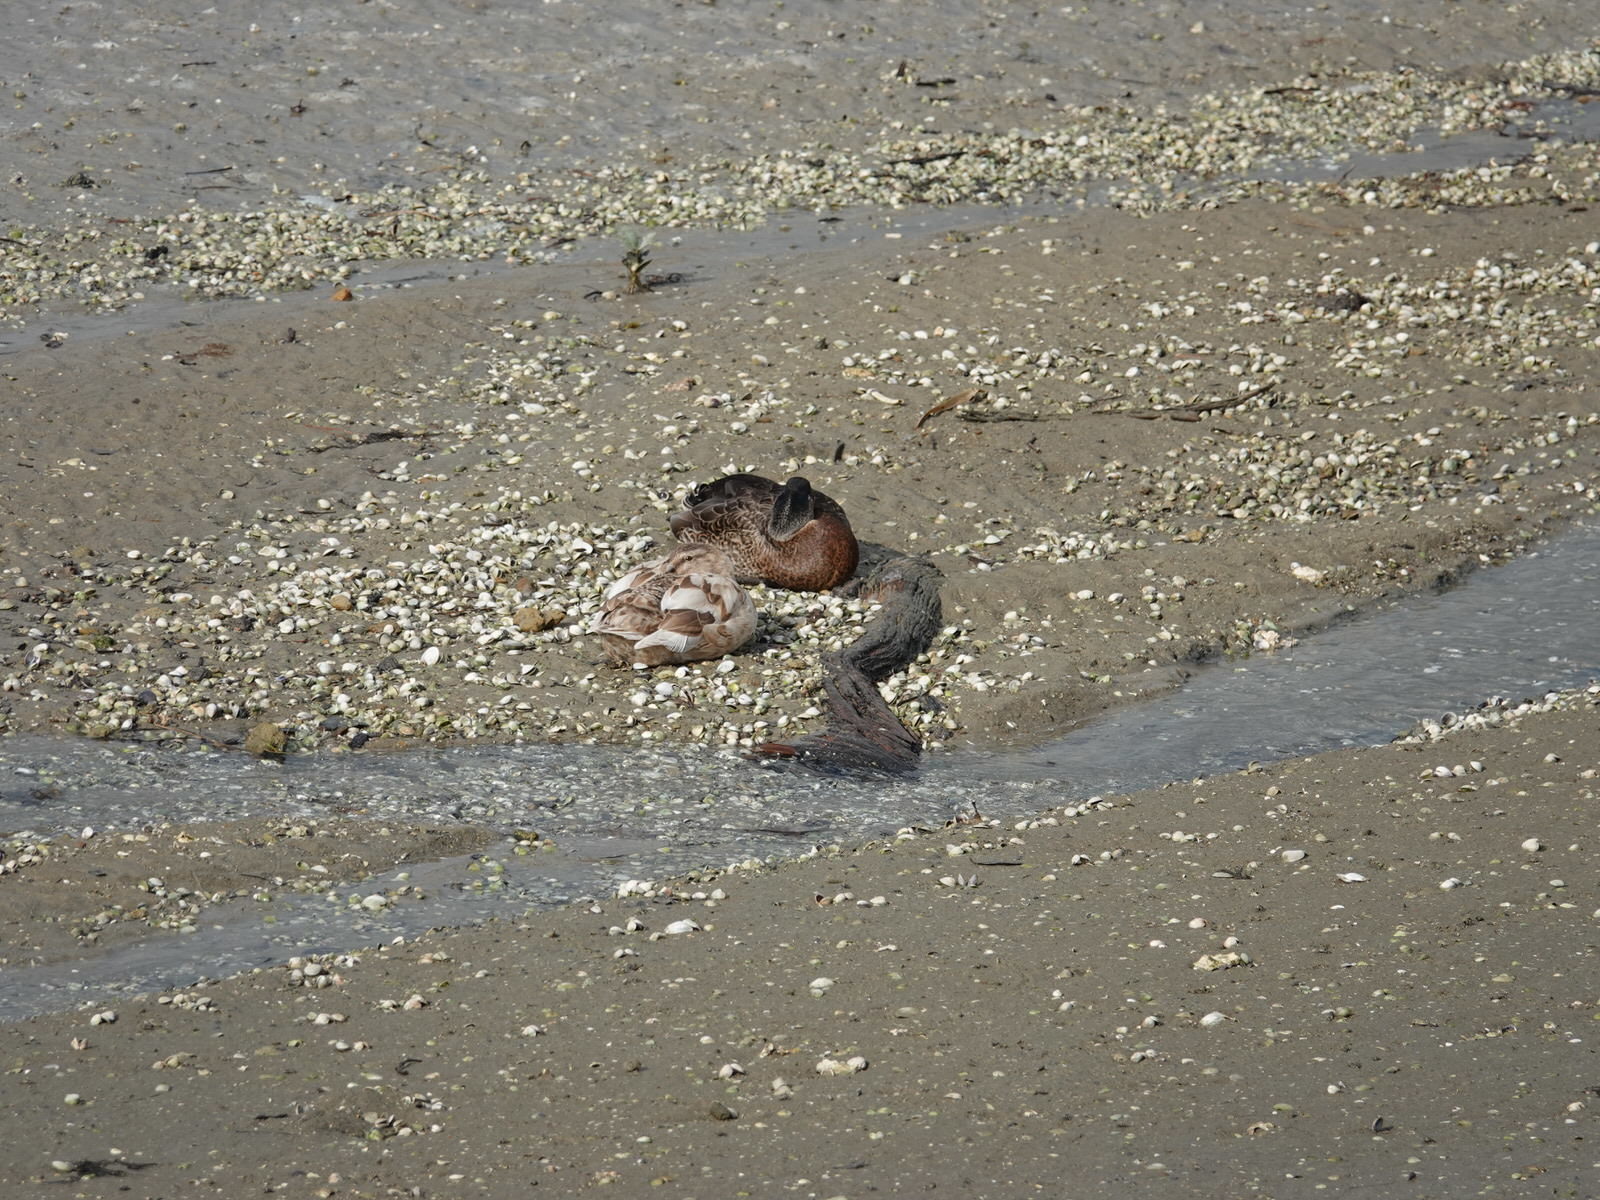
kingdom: Animalia
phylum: Chordata
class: Aves
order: Anseriformes
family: Anatidae
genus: Anas
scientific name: Anas
